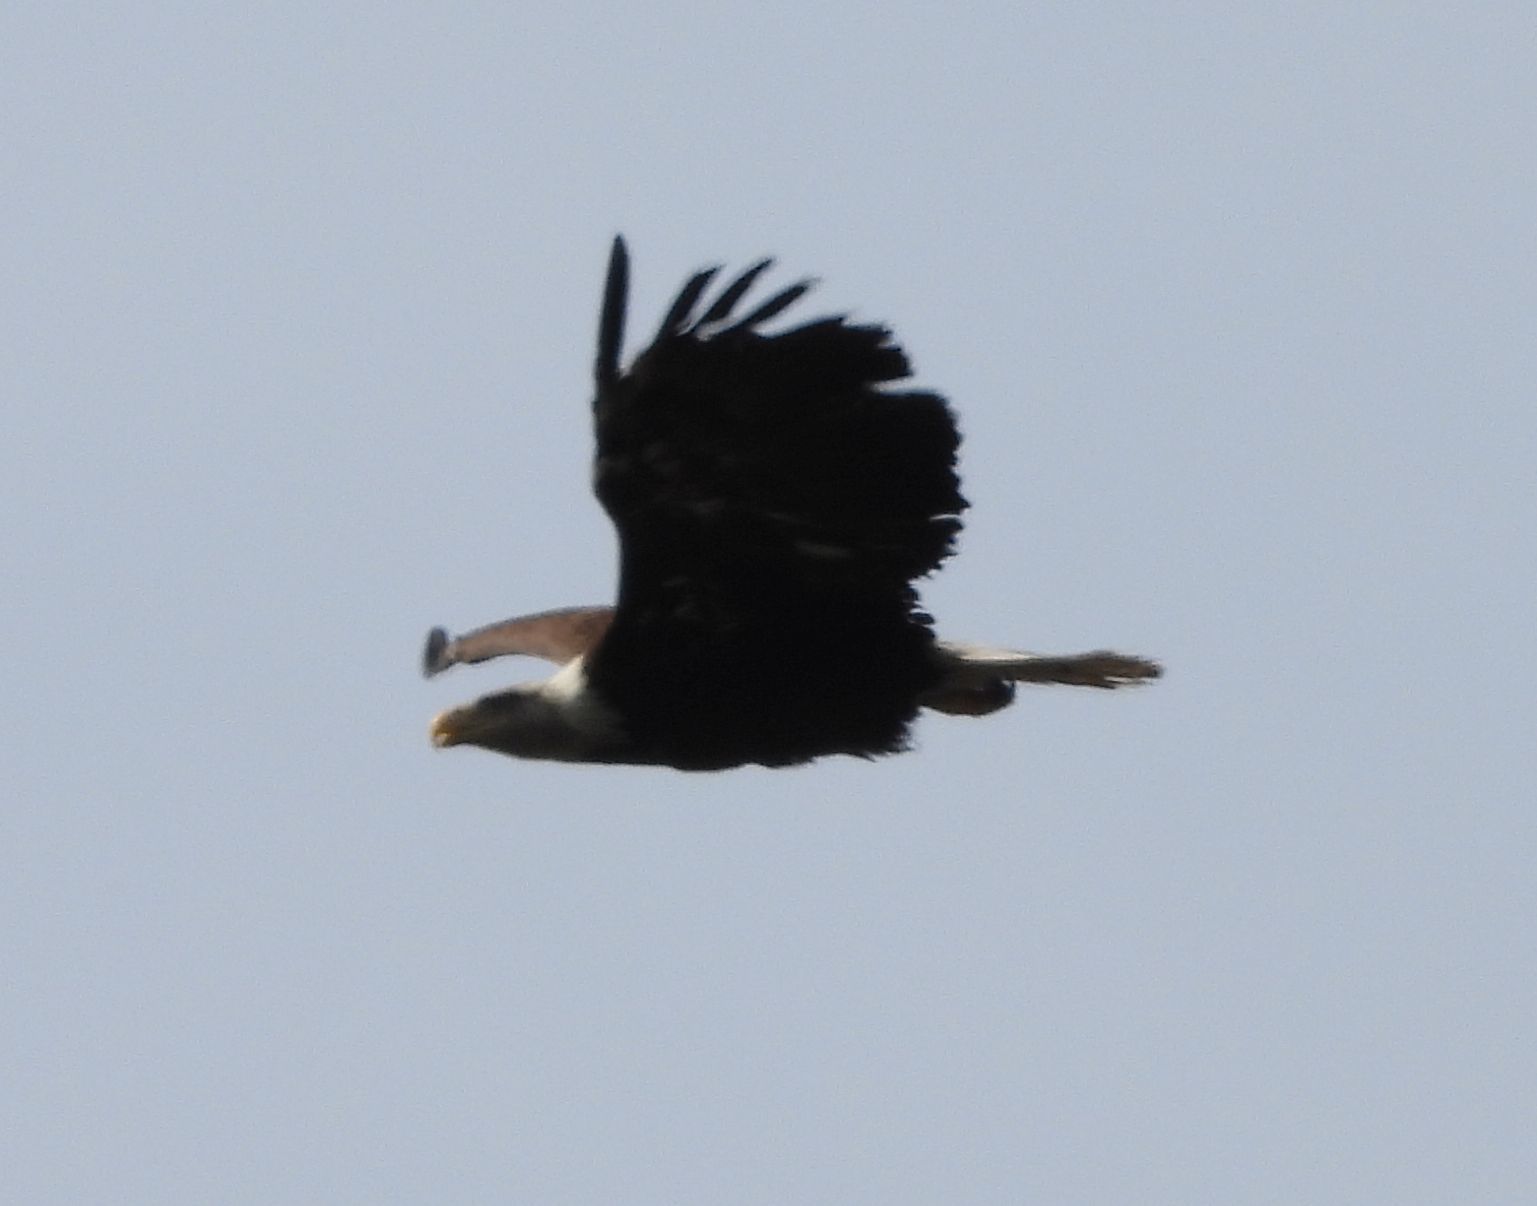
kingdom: Animalia
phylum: Chordata
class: Aves
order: Accipitriformes
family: Accipitridae
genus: Haliaeetus
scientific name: Haliaeetus leucocephalus
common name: Bald eagle
